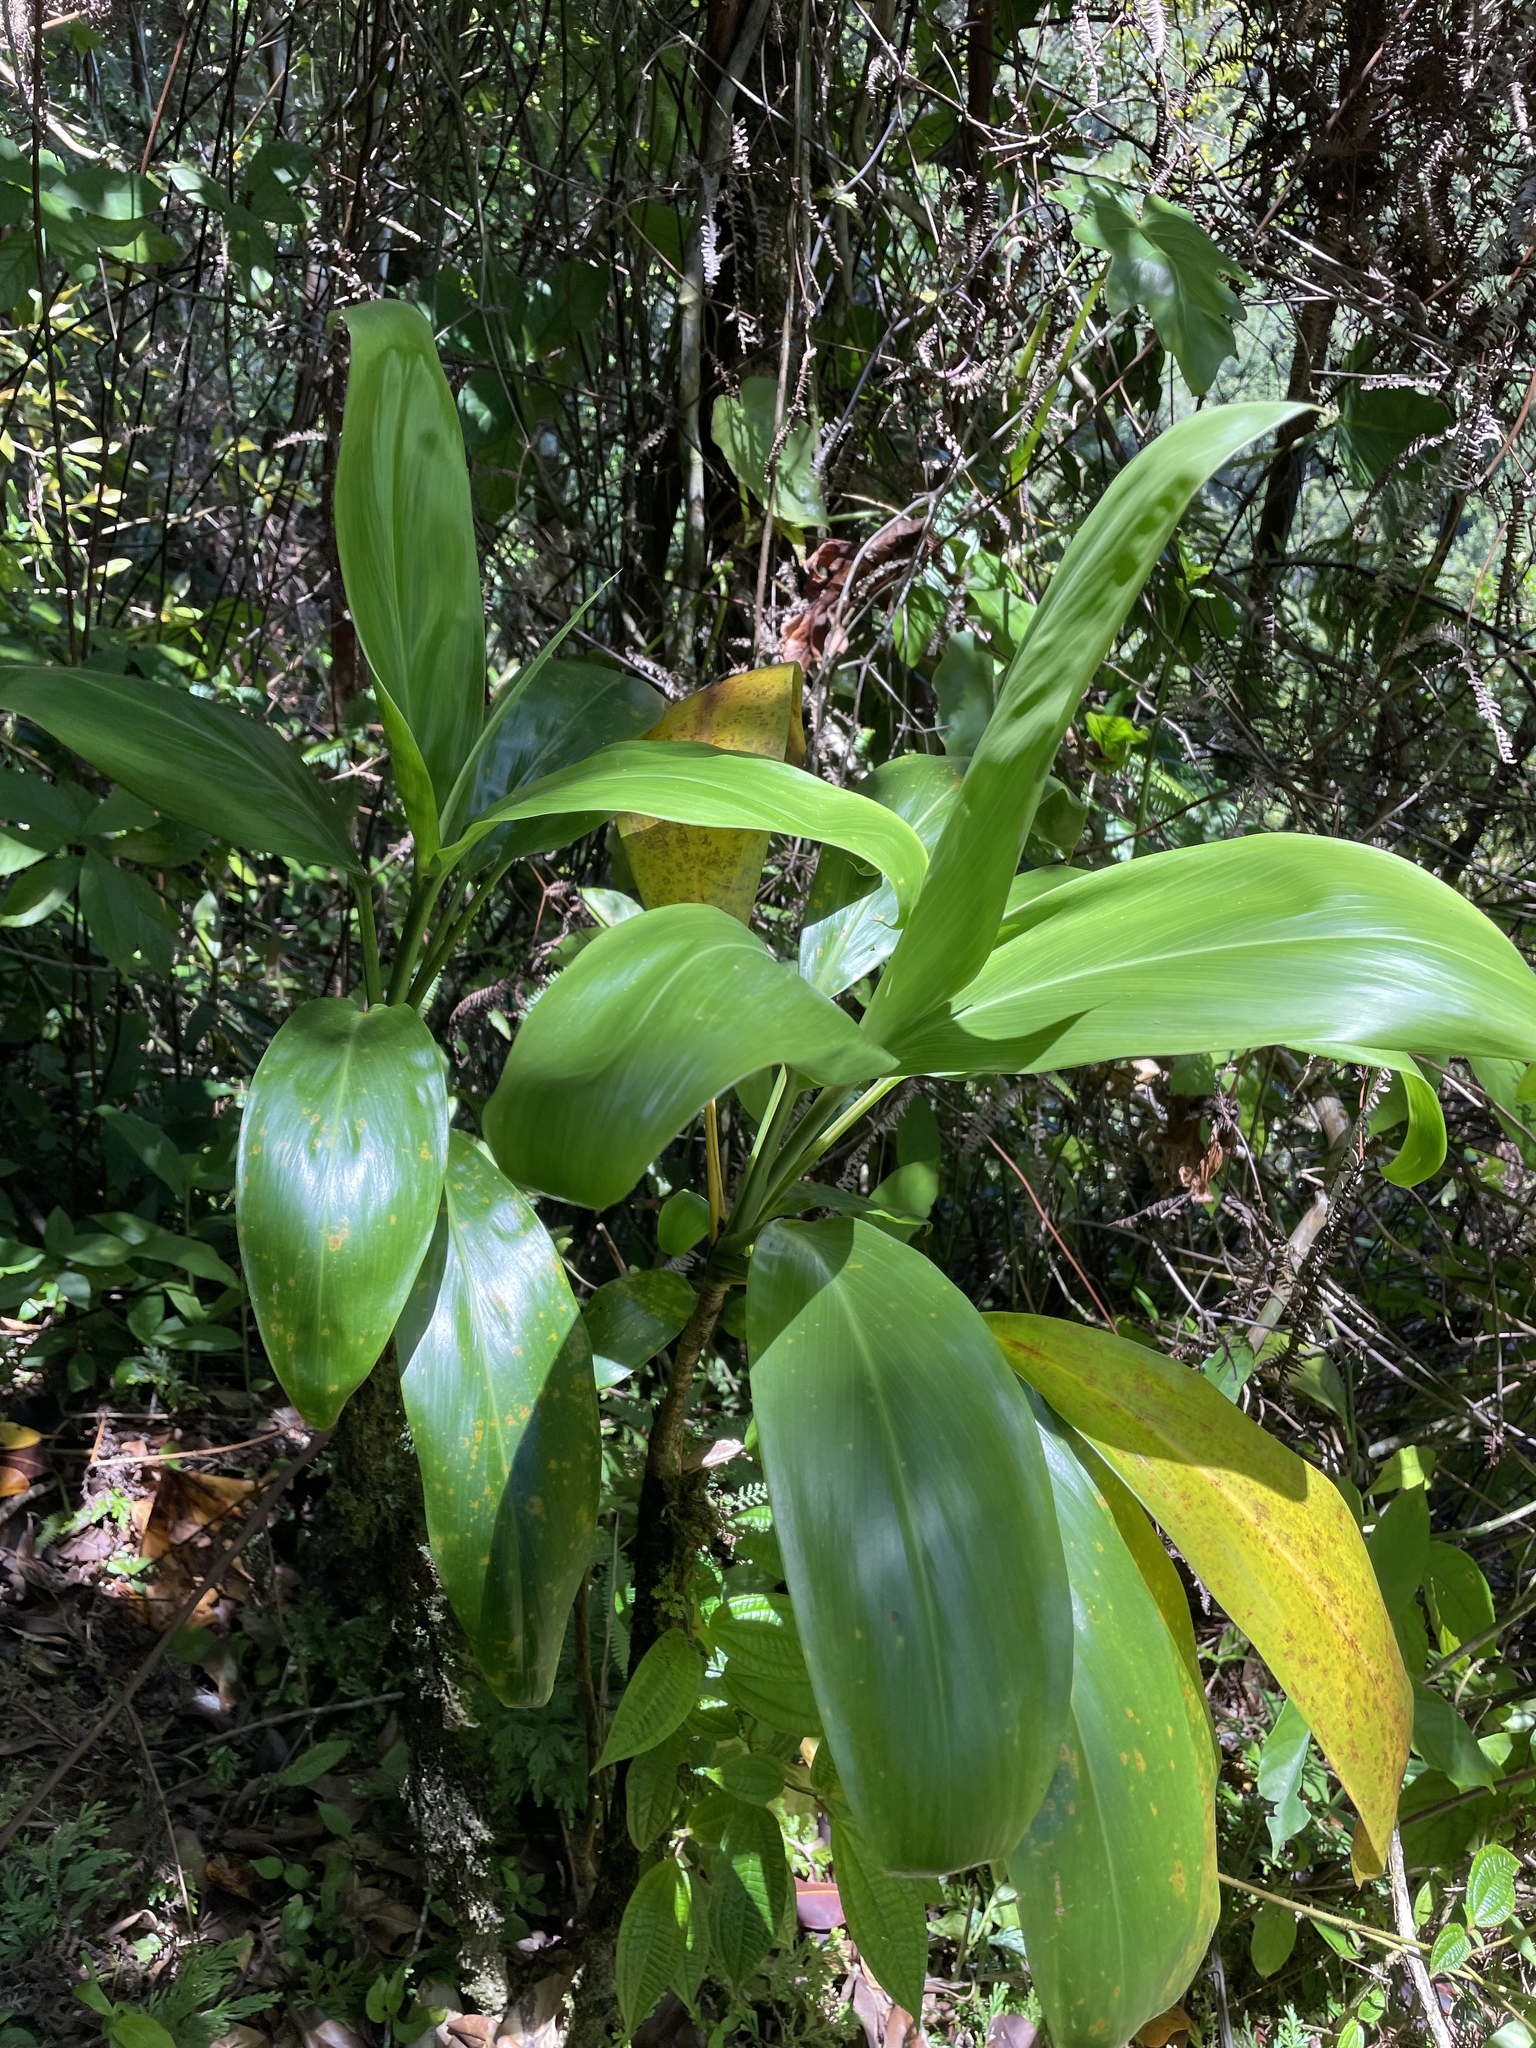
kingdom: Plantae
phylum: Tracheophyta
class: Liliopsida
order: Asparagales
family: Asparagaceae
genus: Cordyline
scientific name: Cordyline fruticosa
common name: Good-luck-plant
